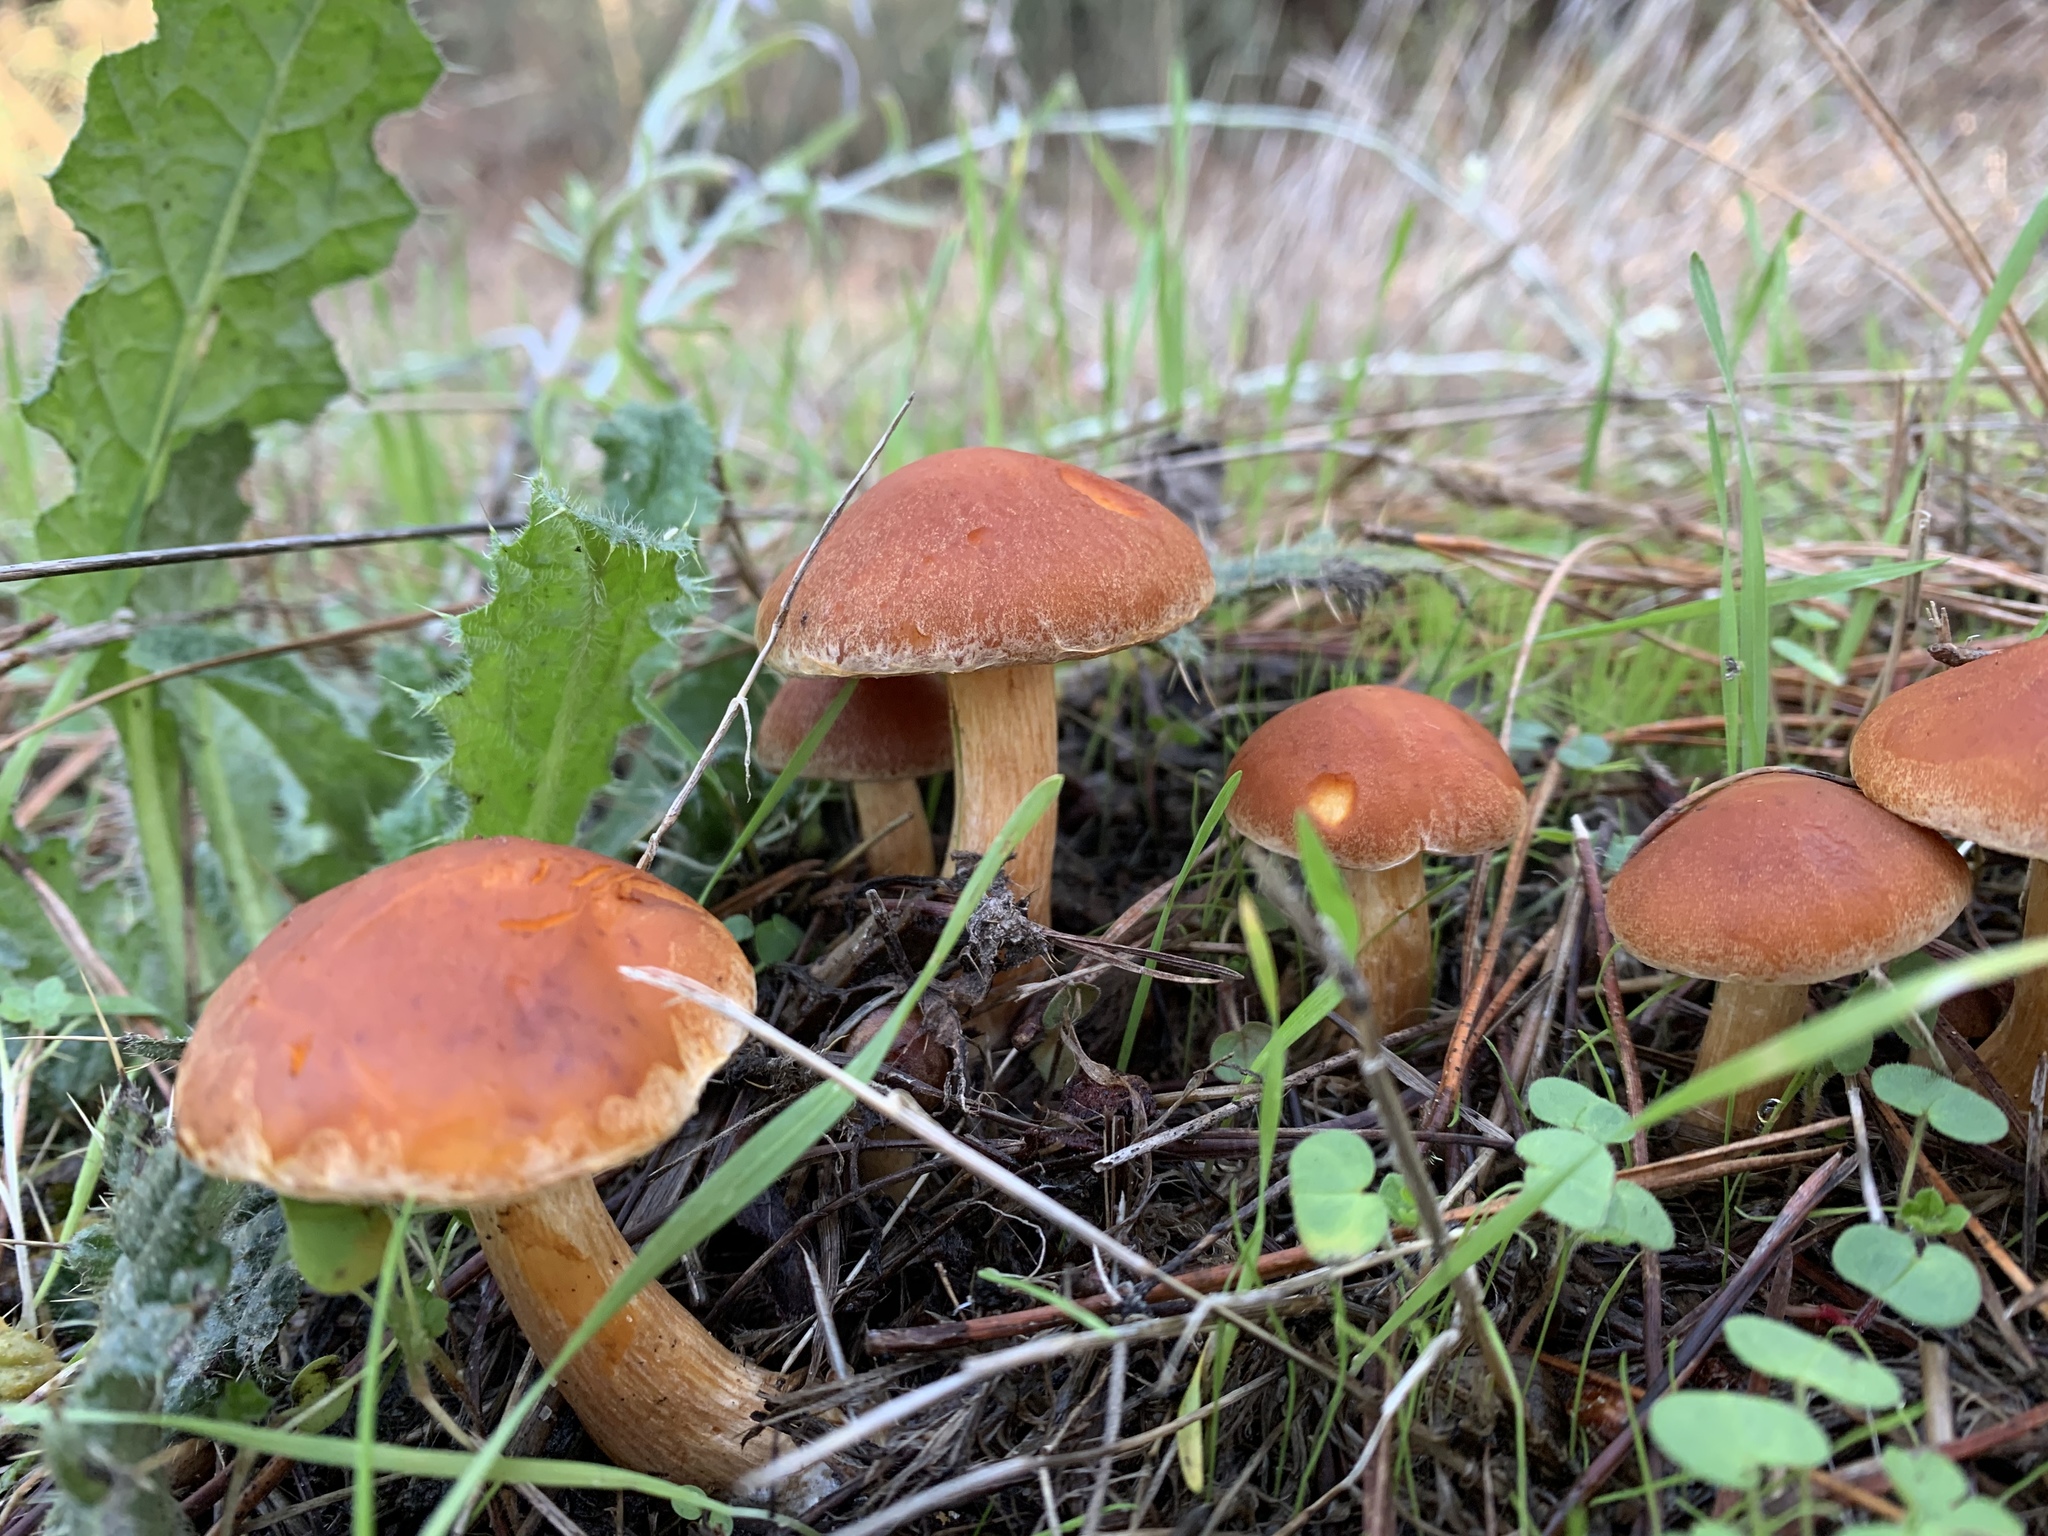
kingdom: Fungi
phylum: Basidiomycota
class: Agaricomycetes
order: Agaricales
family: Strophariaceae
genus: Leratiomyces
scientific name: Leratiomyces ceres
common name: Redlead roundhead
